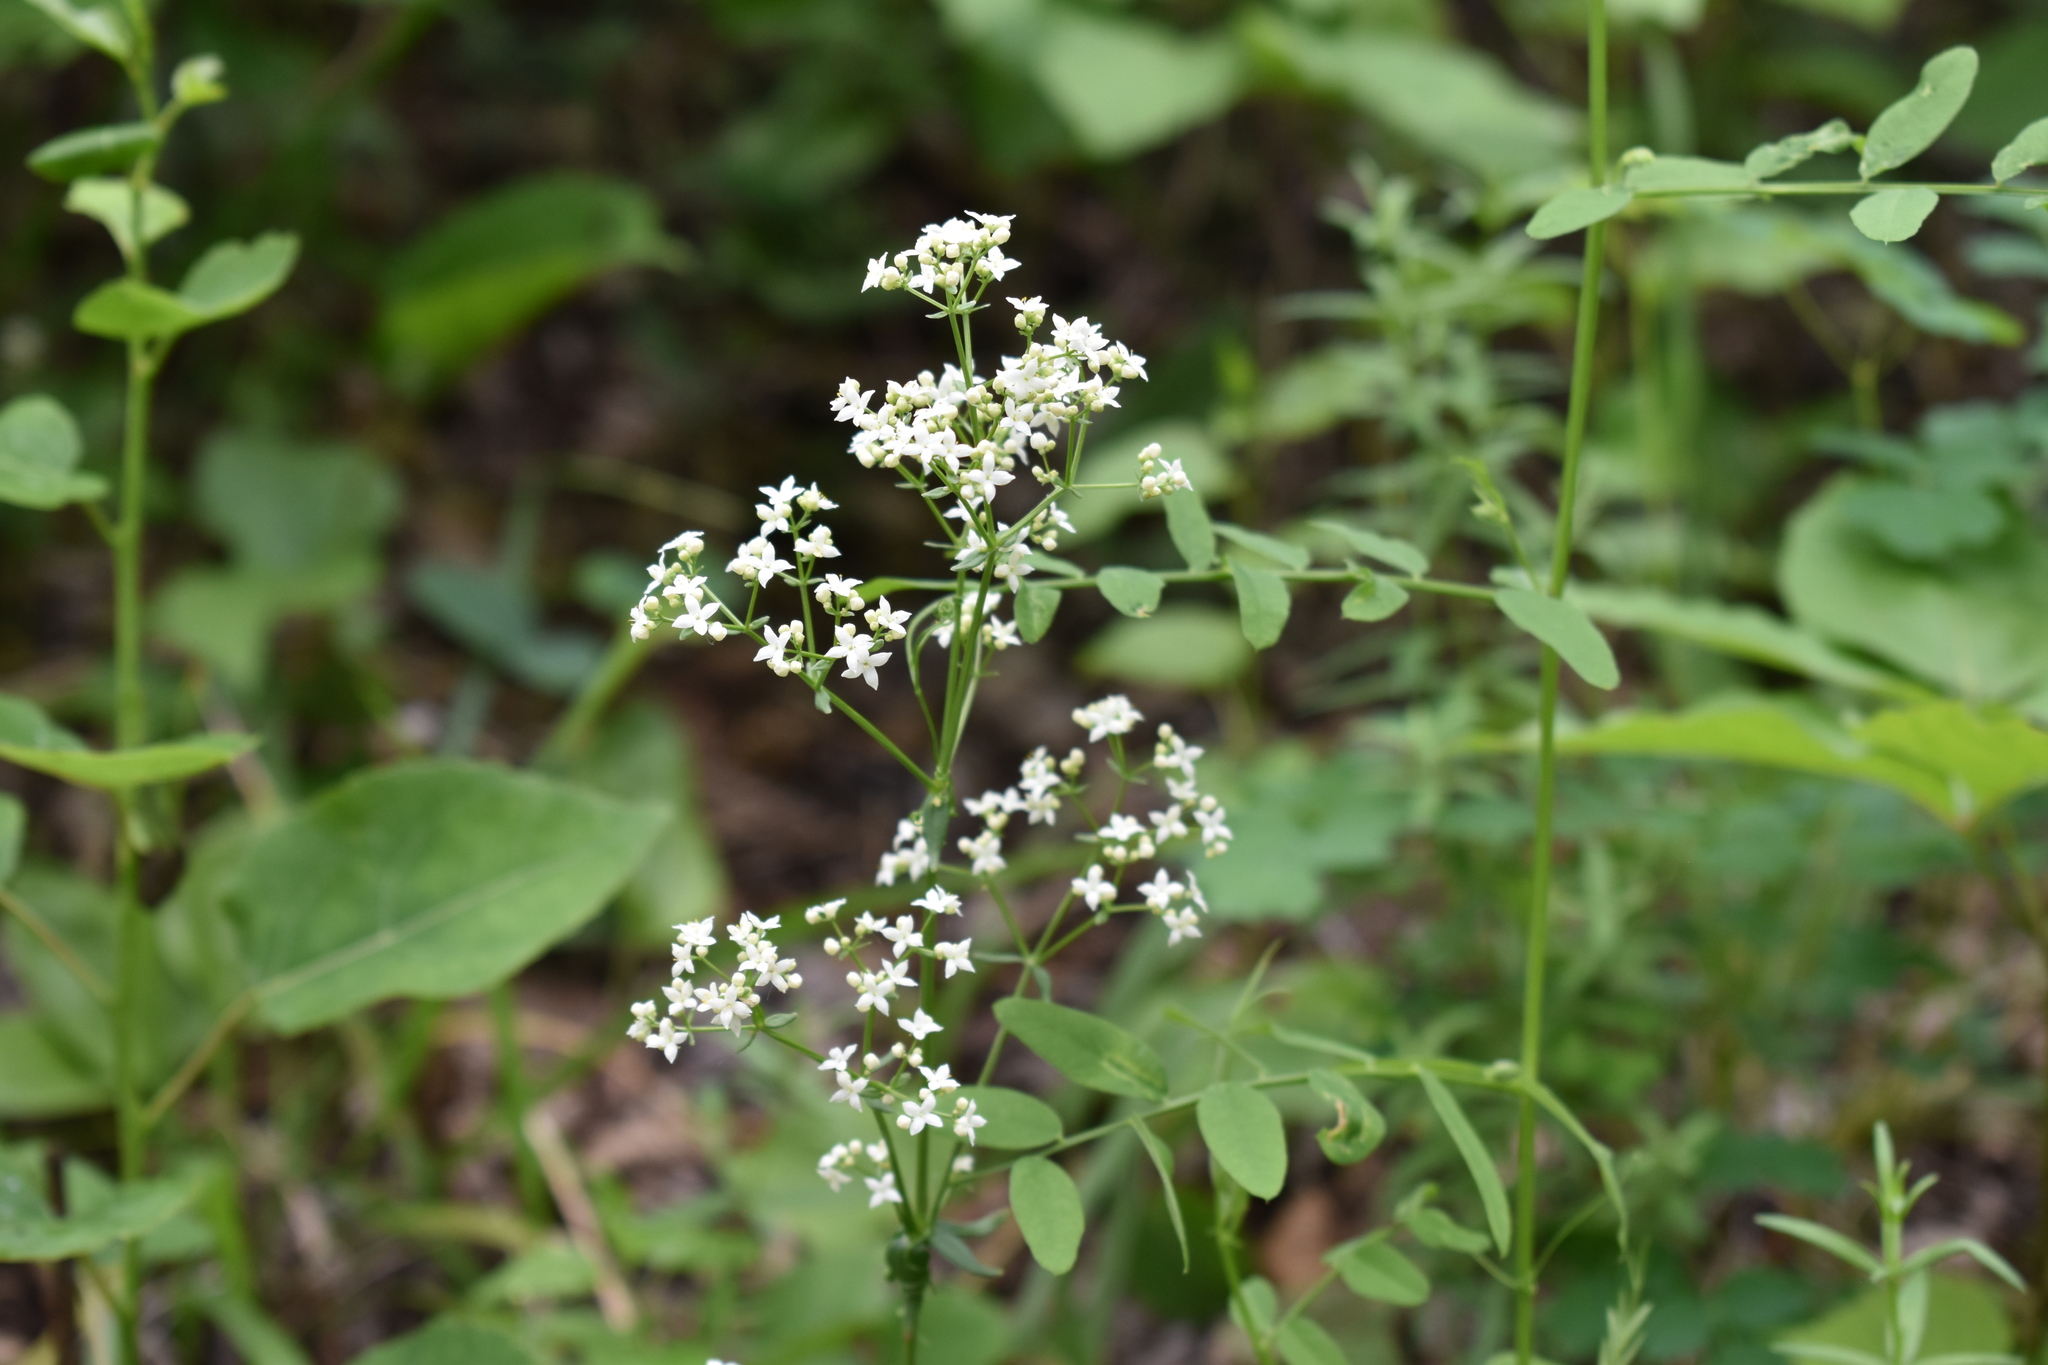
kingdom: Plantae
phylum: Tracheophyta
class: Magnoliopsida
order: Gentianales
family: Rubiaceae
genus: Galium
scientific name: Galium boreale
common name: Northern bedstraw
